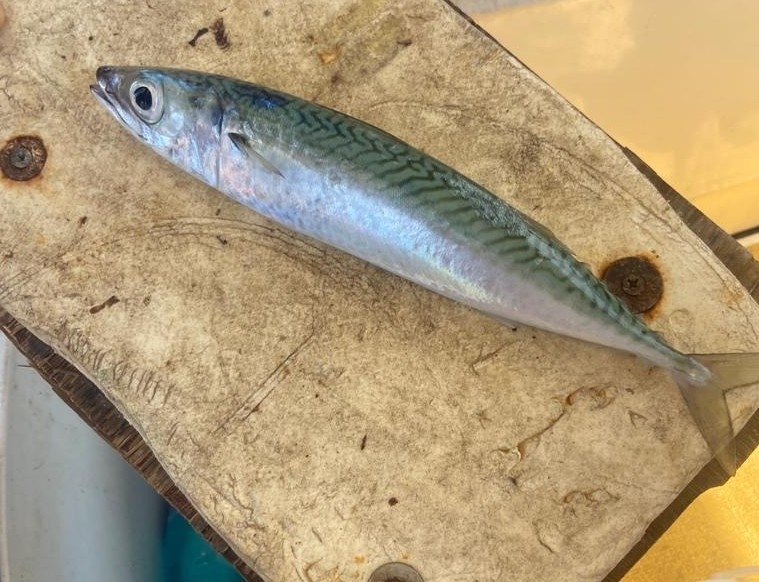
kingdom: Animalia
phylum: Chordata
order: Perciformes
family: Scombridae
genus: Scomber
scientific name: Scomber colias
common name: Atlantic chub mackerel
